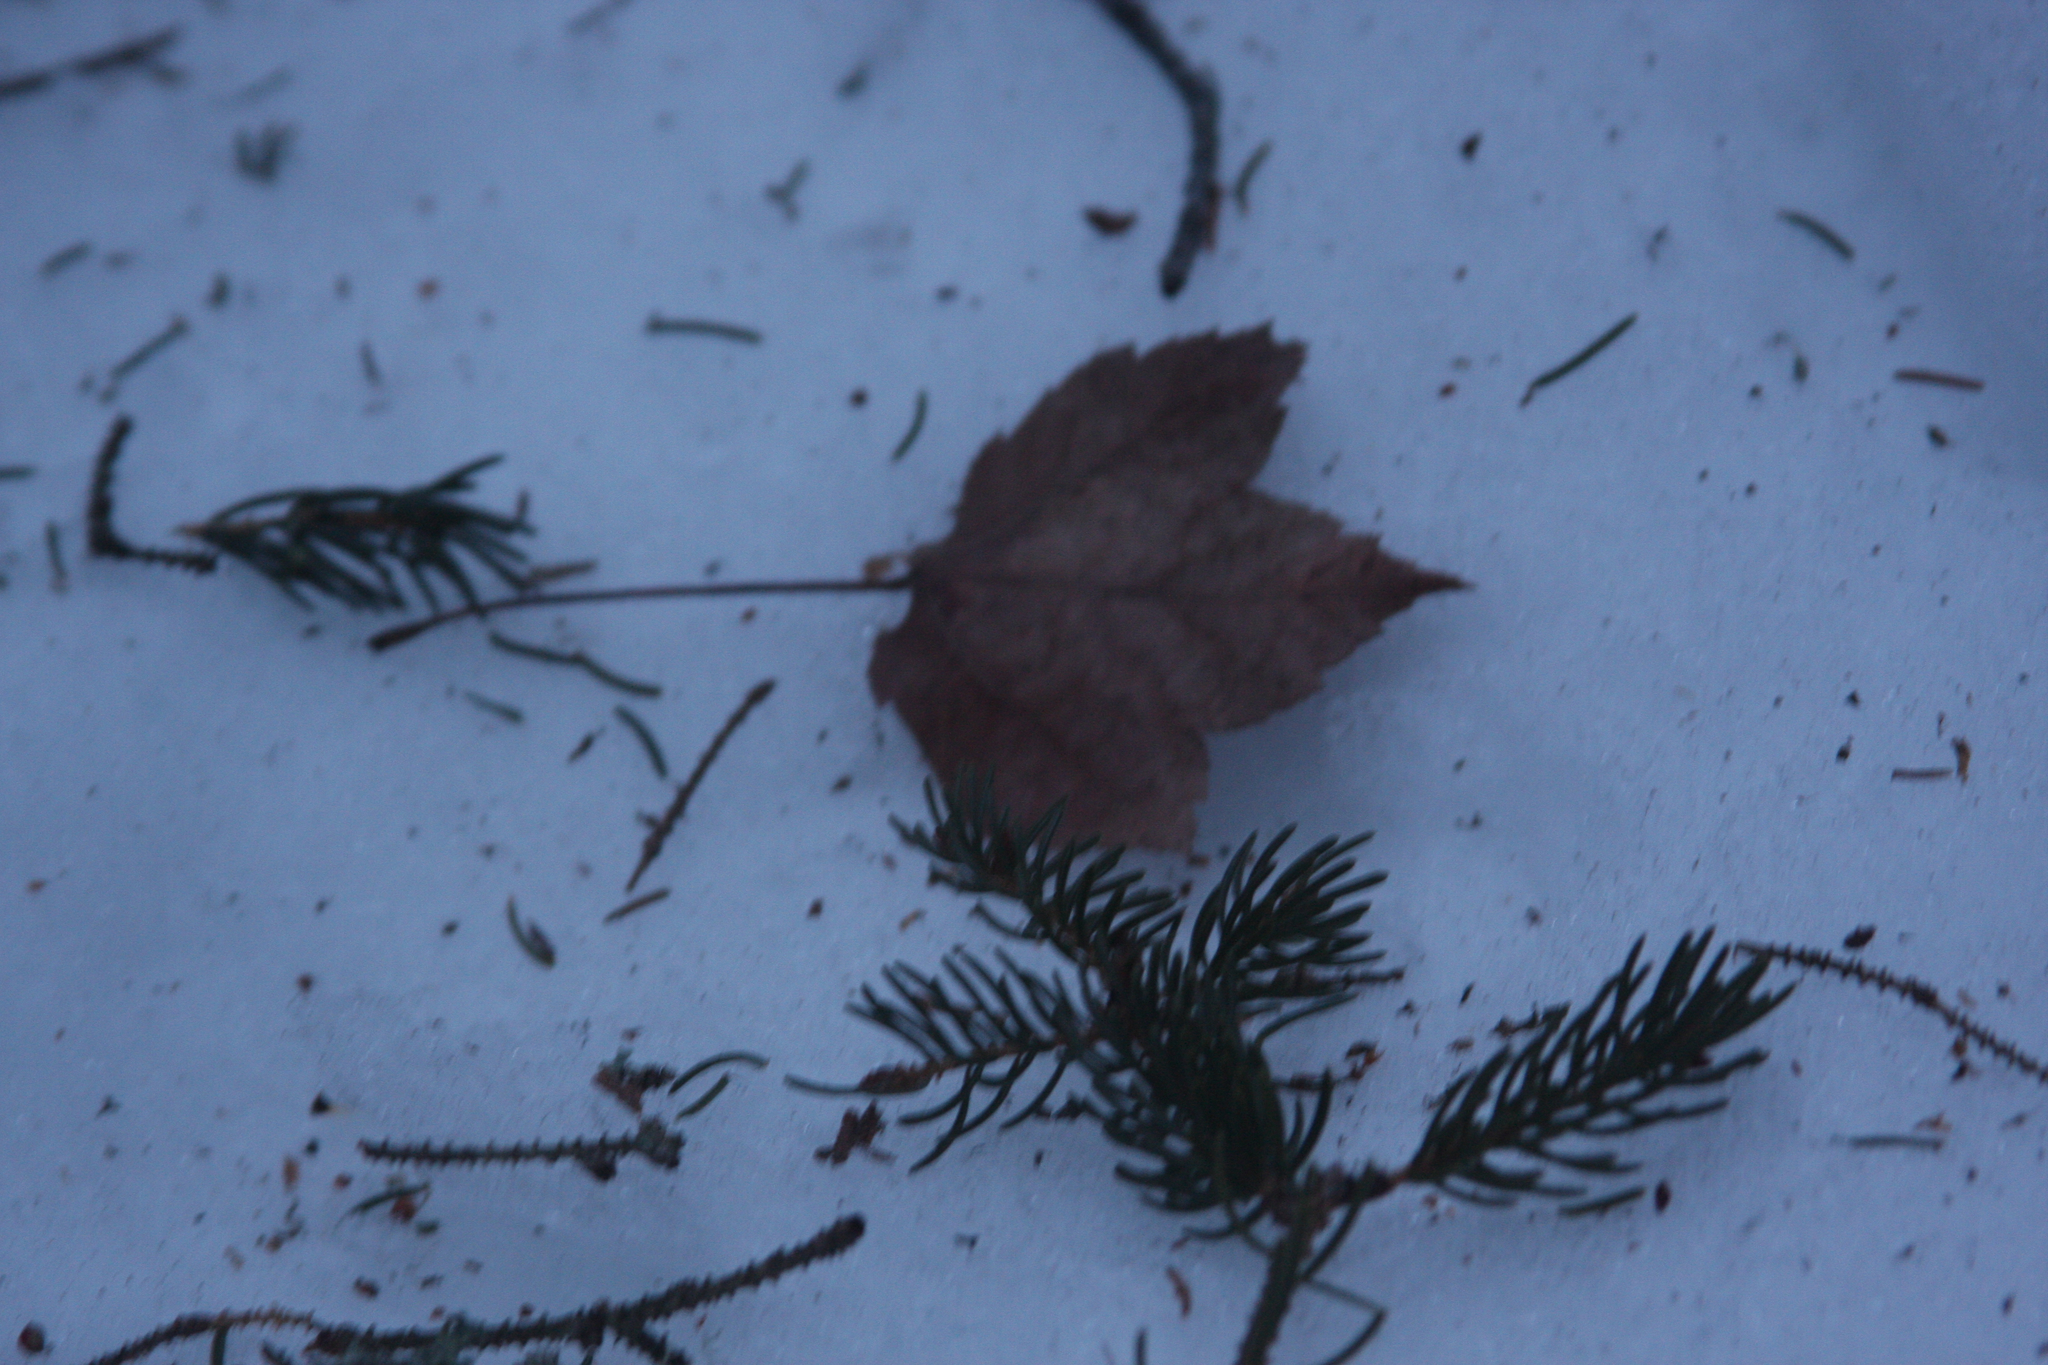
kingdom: Plantae
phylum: Tracheophyta
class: Magnoliopsida
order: Sapindales
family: Sapindaceae
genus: Acer
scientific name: Acer rubrum
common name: Red maple
